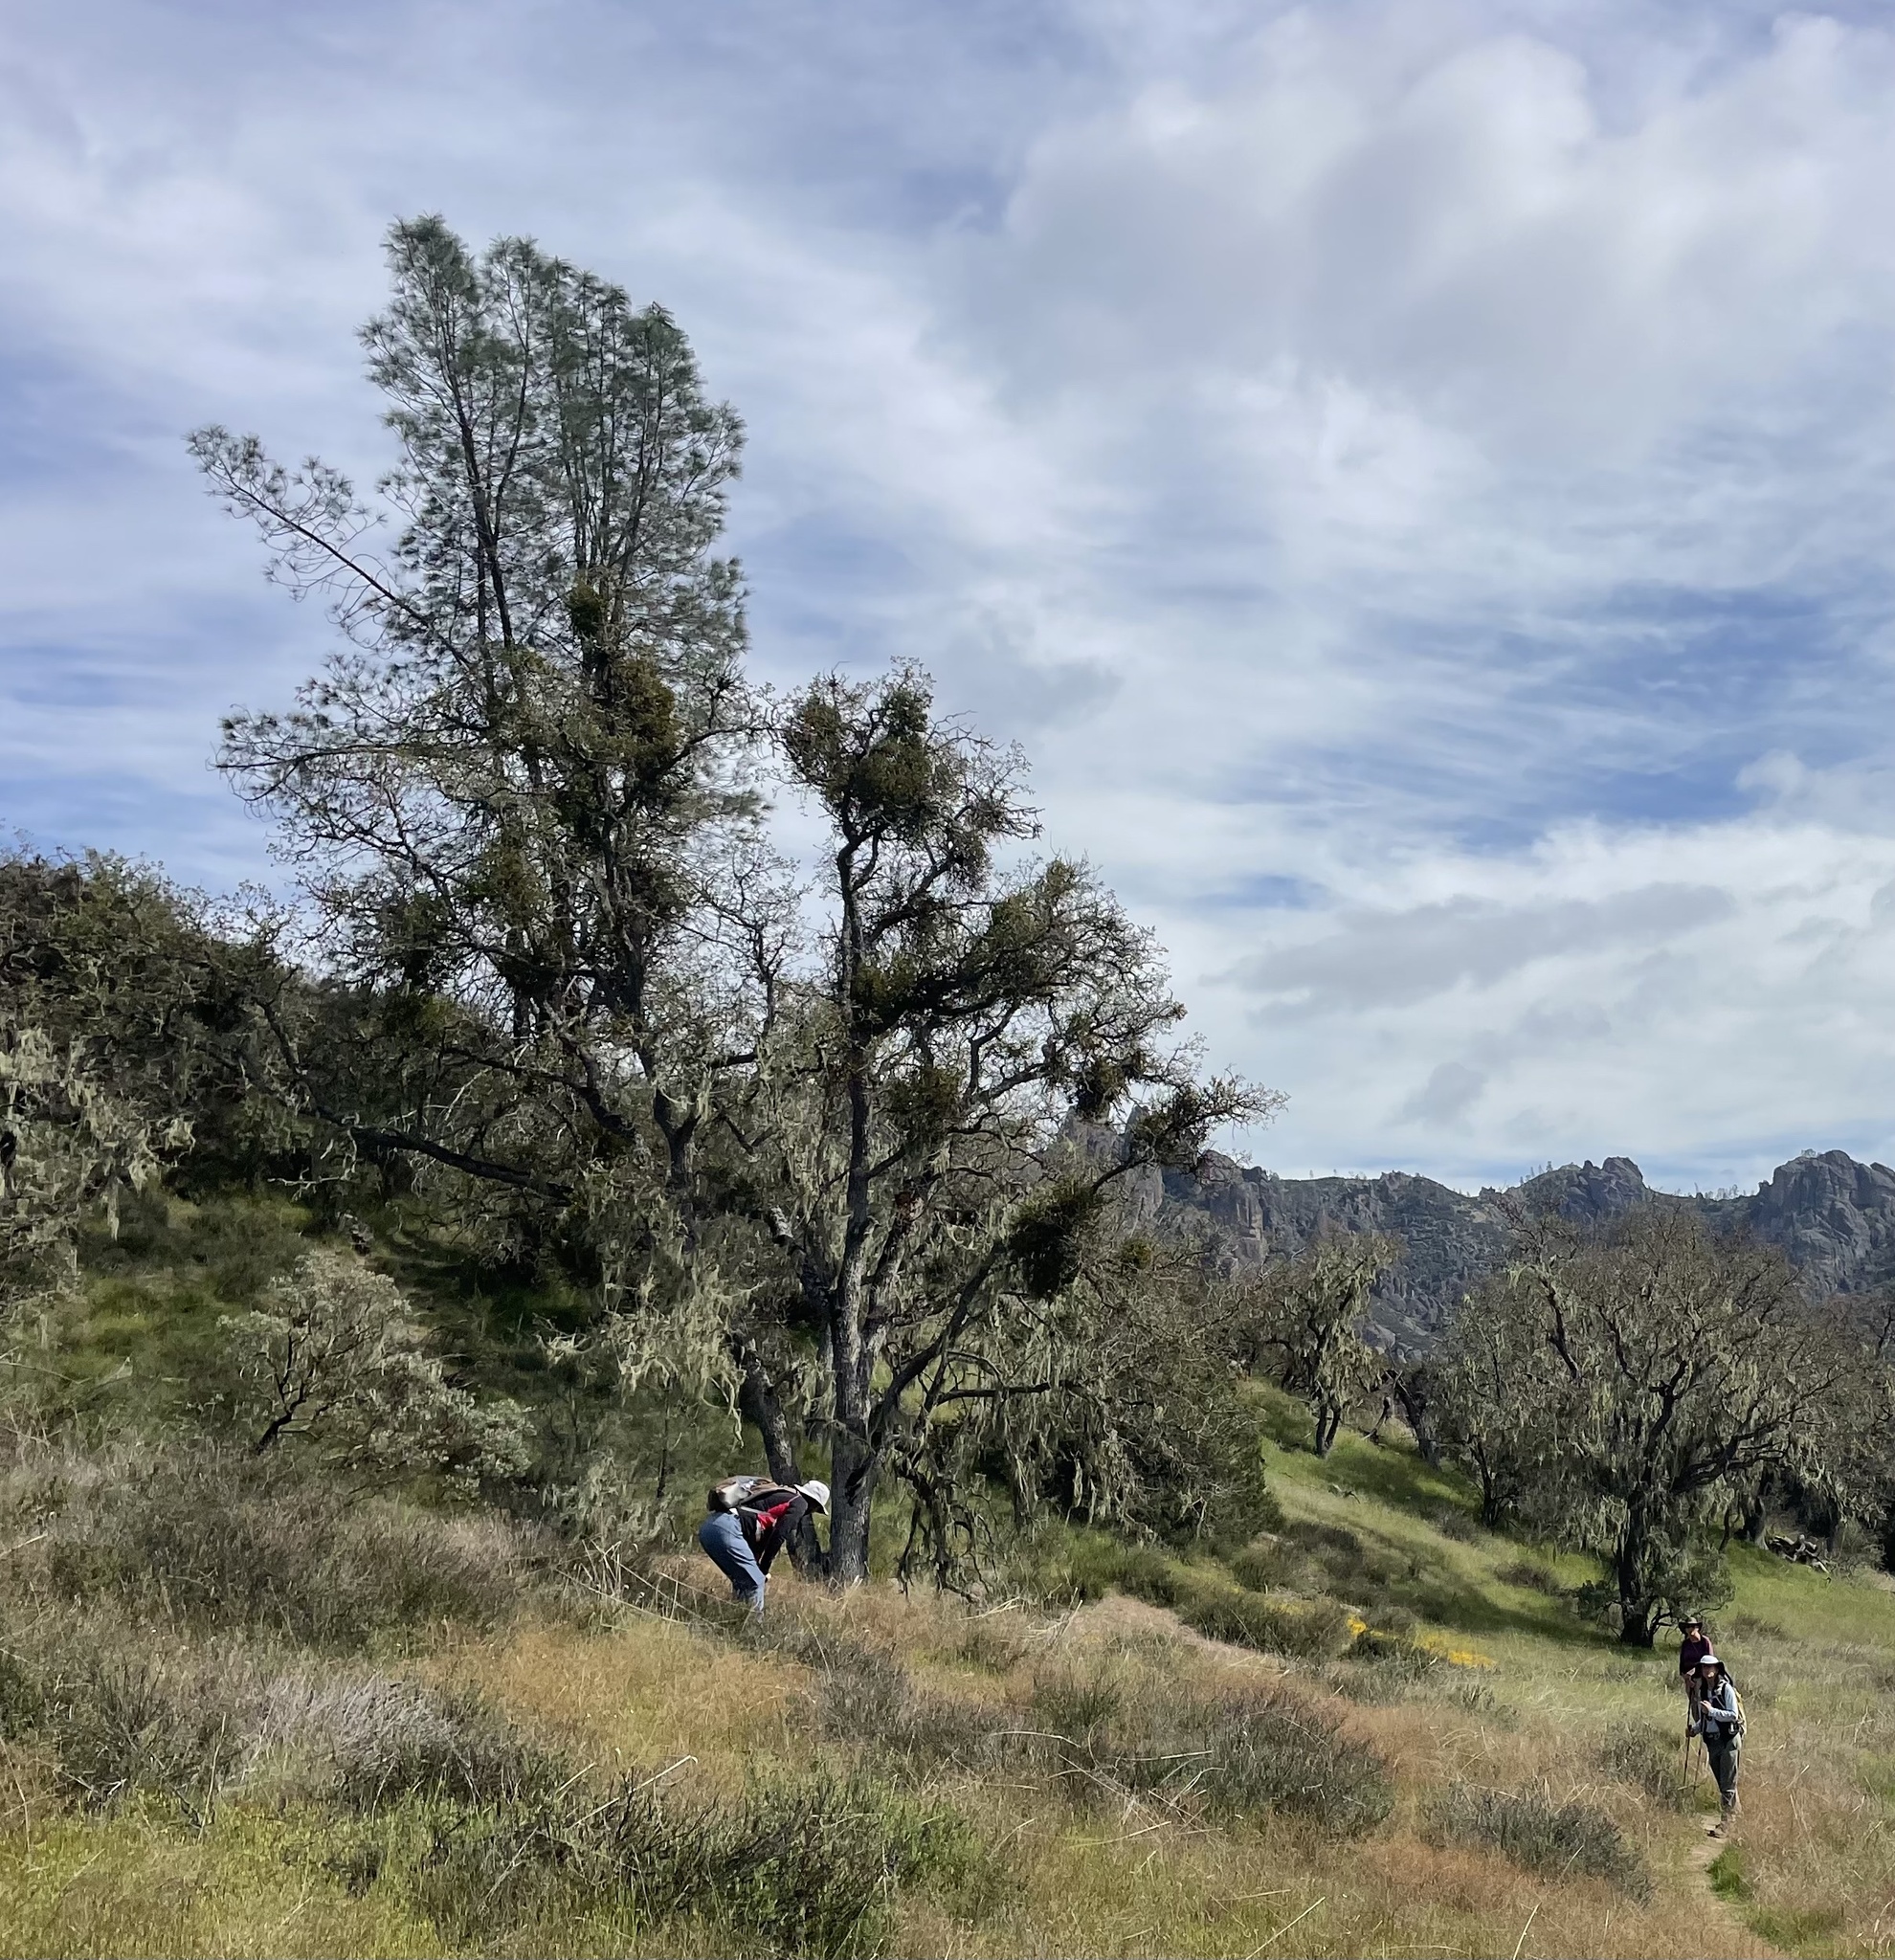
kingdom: Plantae
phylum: Tracheophyta
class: Pinopsida
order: Pinales
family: Pinaceae
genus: Pinus
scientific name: Pinus sabiniana
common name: Bull pine
